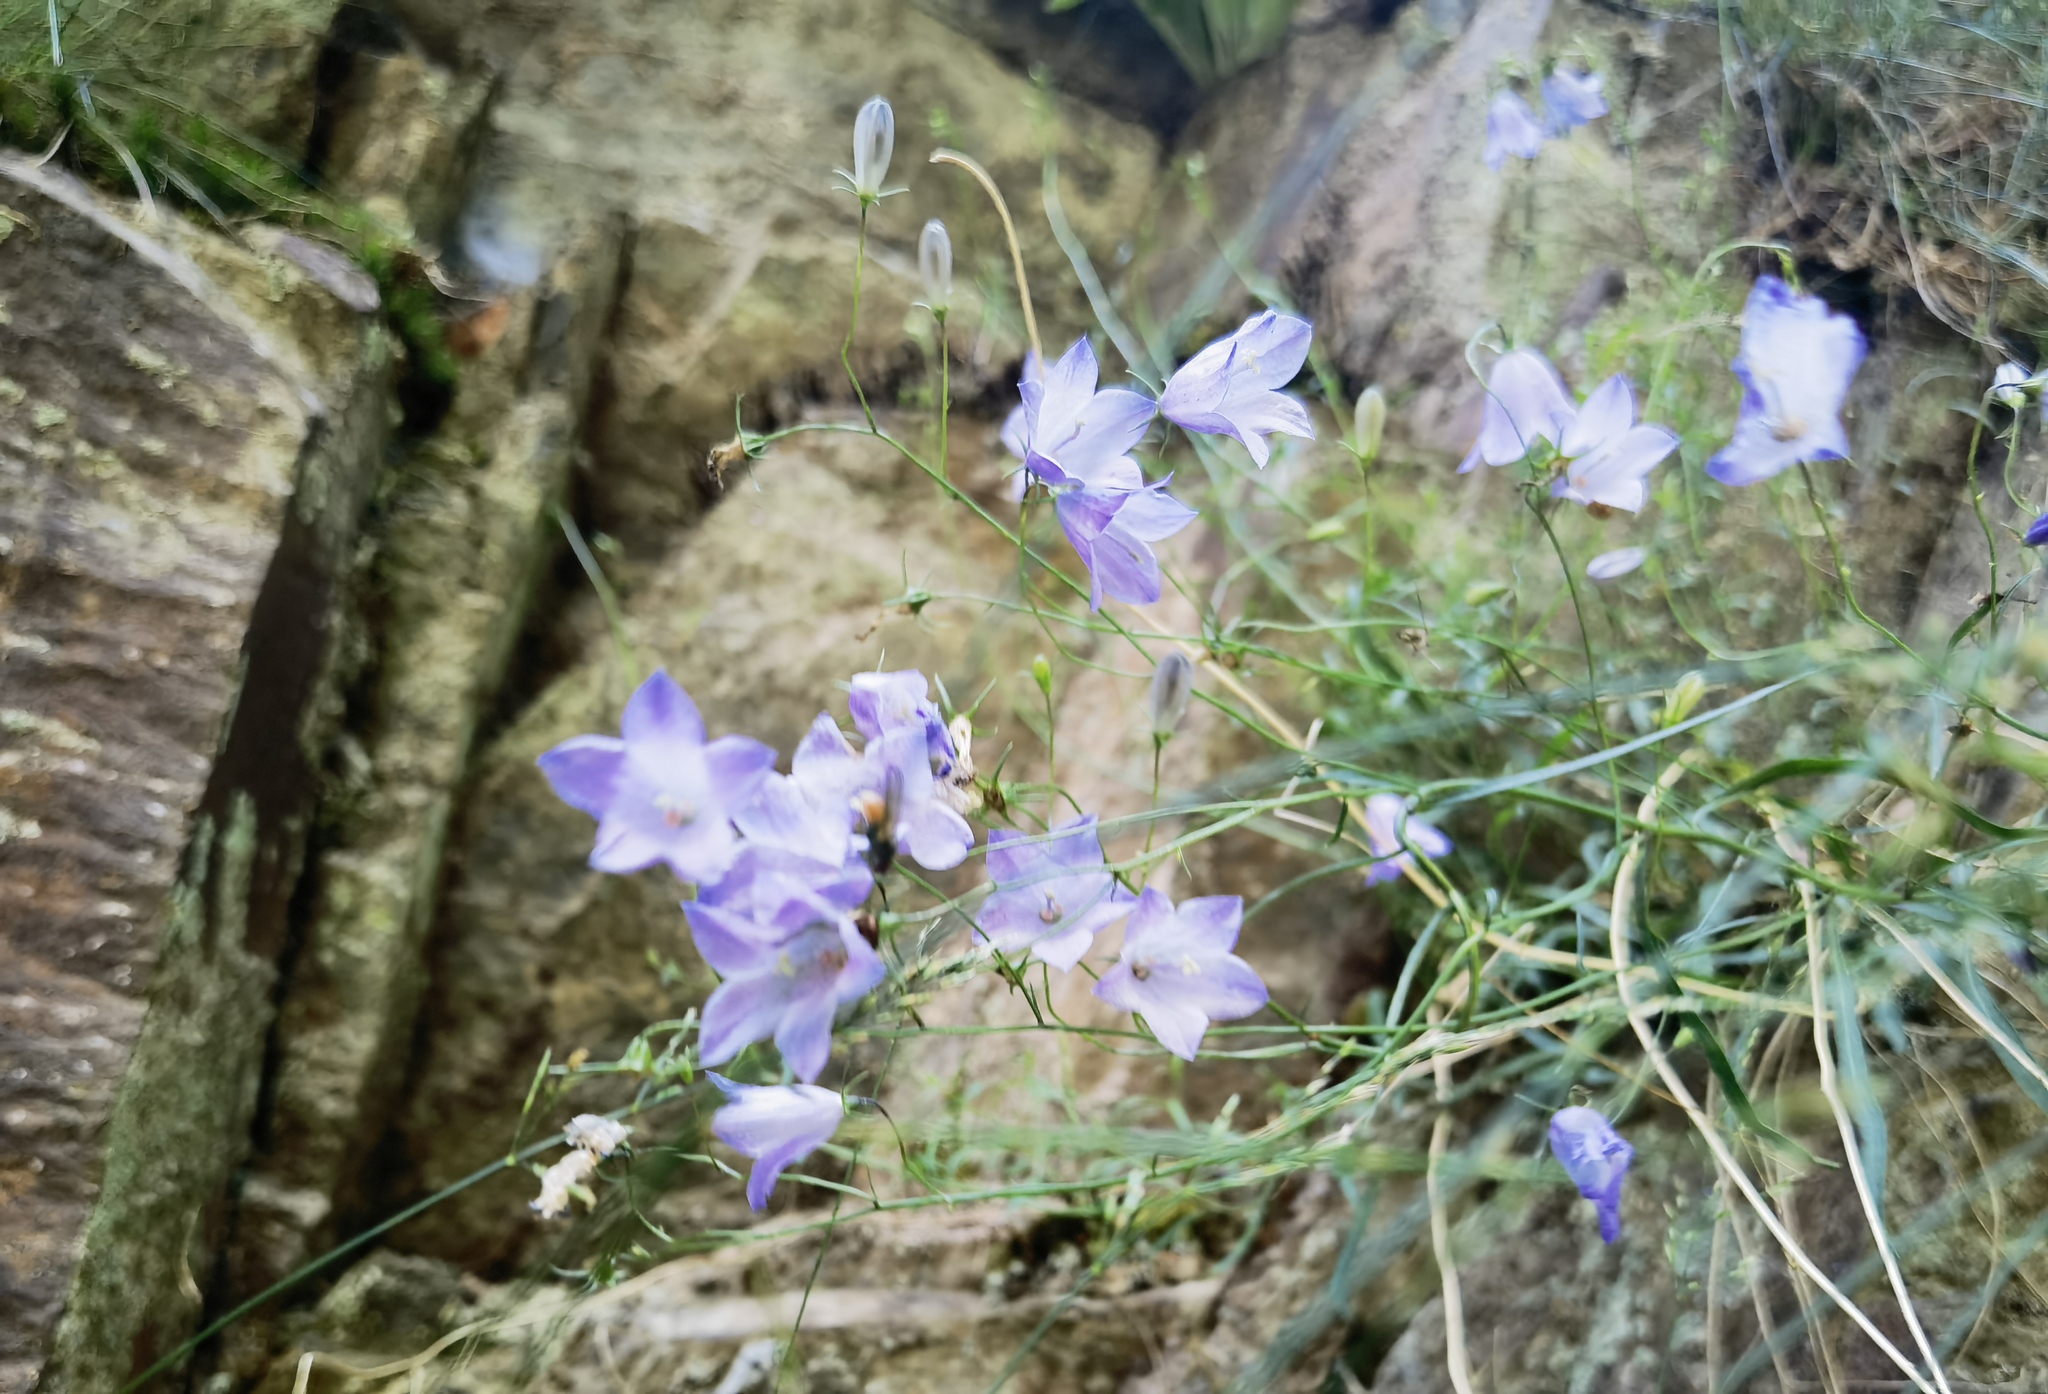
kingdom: Plantae
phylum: Tracheophyta
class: Magnoliopsida
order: Asterales
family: Campanulaceae
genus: Campanula
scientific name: Campanula rotundifolia
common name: Harebell
